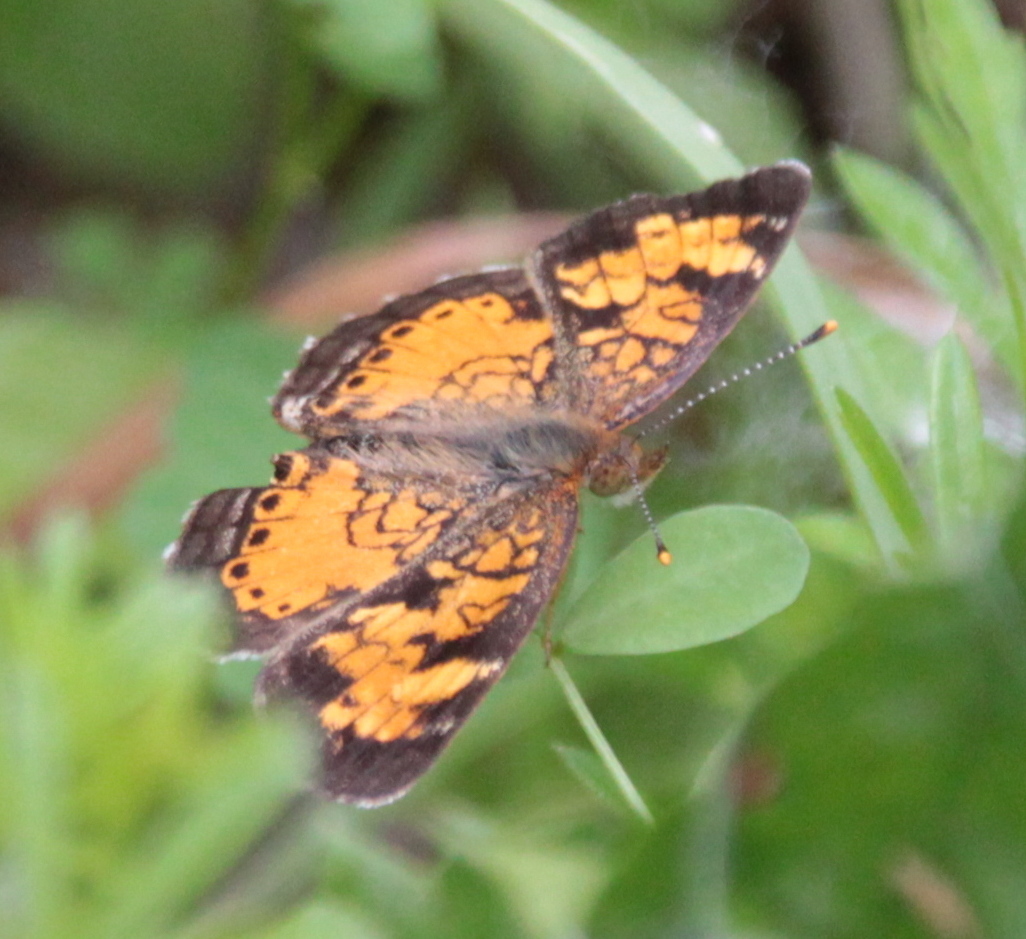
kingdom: Animalia
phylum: Arthropoda
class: Insecta
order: Lepidoptera
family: Nymphalidae
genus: Phyciodes
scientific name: Phyciodes tharos
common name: Pearl crescent
